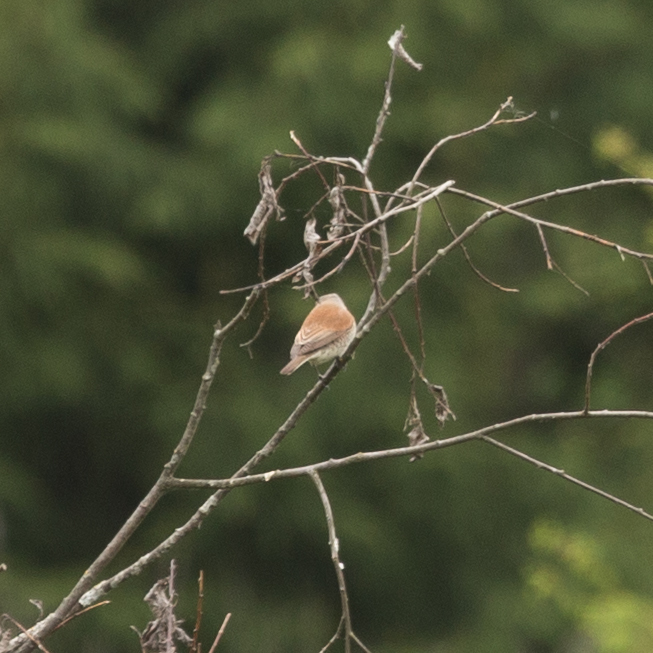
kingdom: Animalia
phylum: Chordata
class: Aves
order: Passeriformes
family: Laniidae
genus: Lanius
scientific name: Lanius collurio
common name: Red-backed shrike
